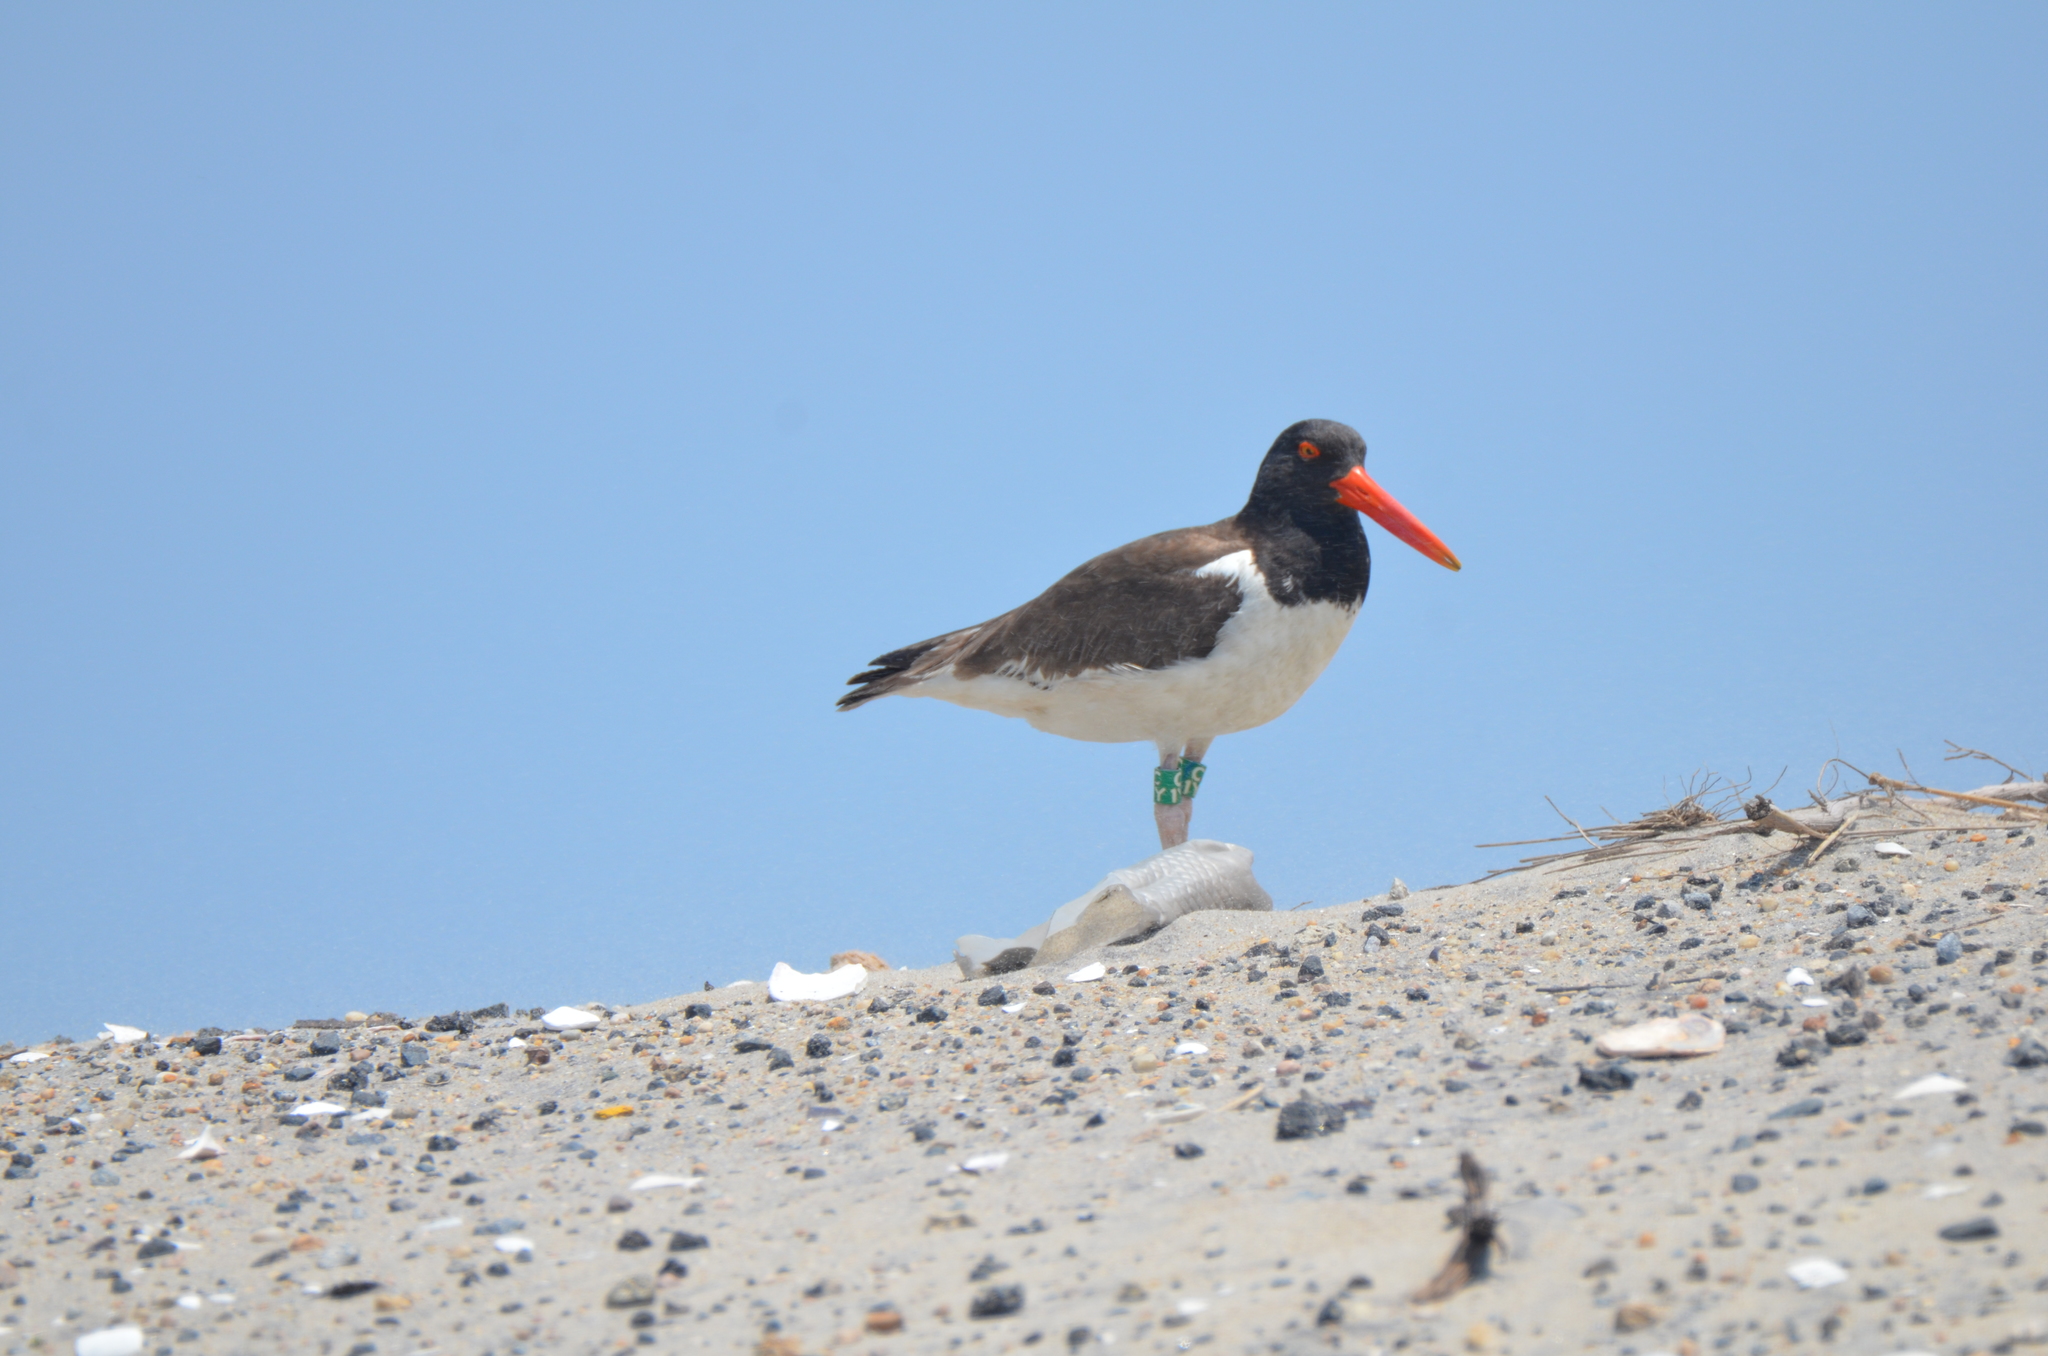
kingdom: Animalia
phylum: Chordata
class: Aves
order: Charadriiformes
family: Haematopodidae
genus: Haematopus
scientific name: Haematopus palliatus
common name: American oystercatcher
